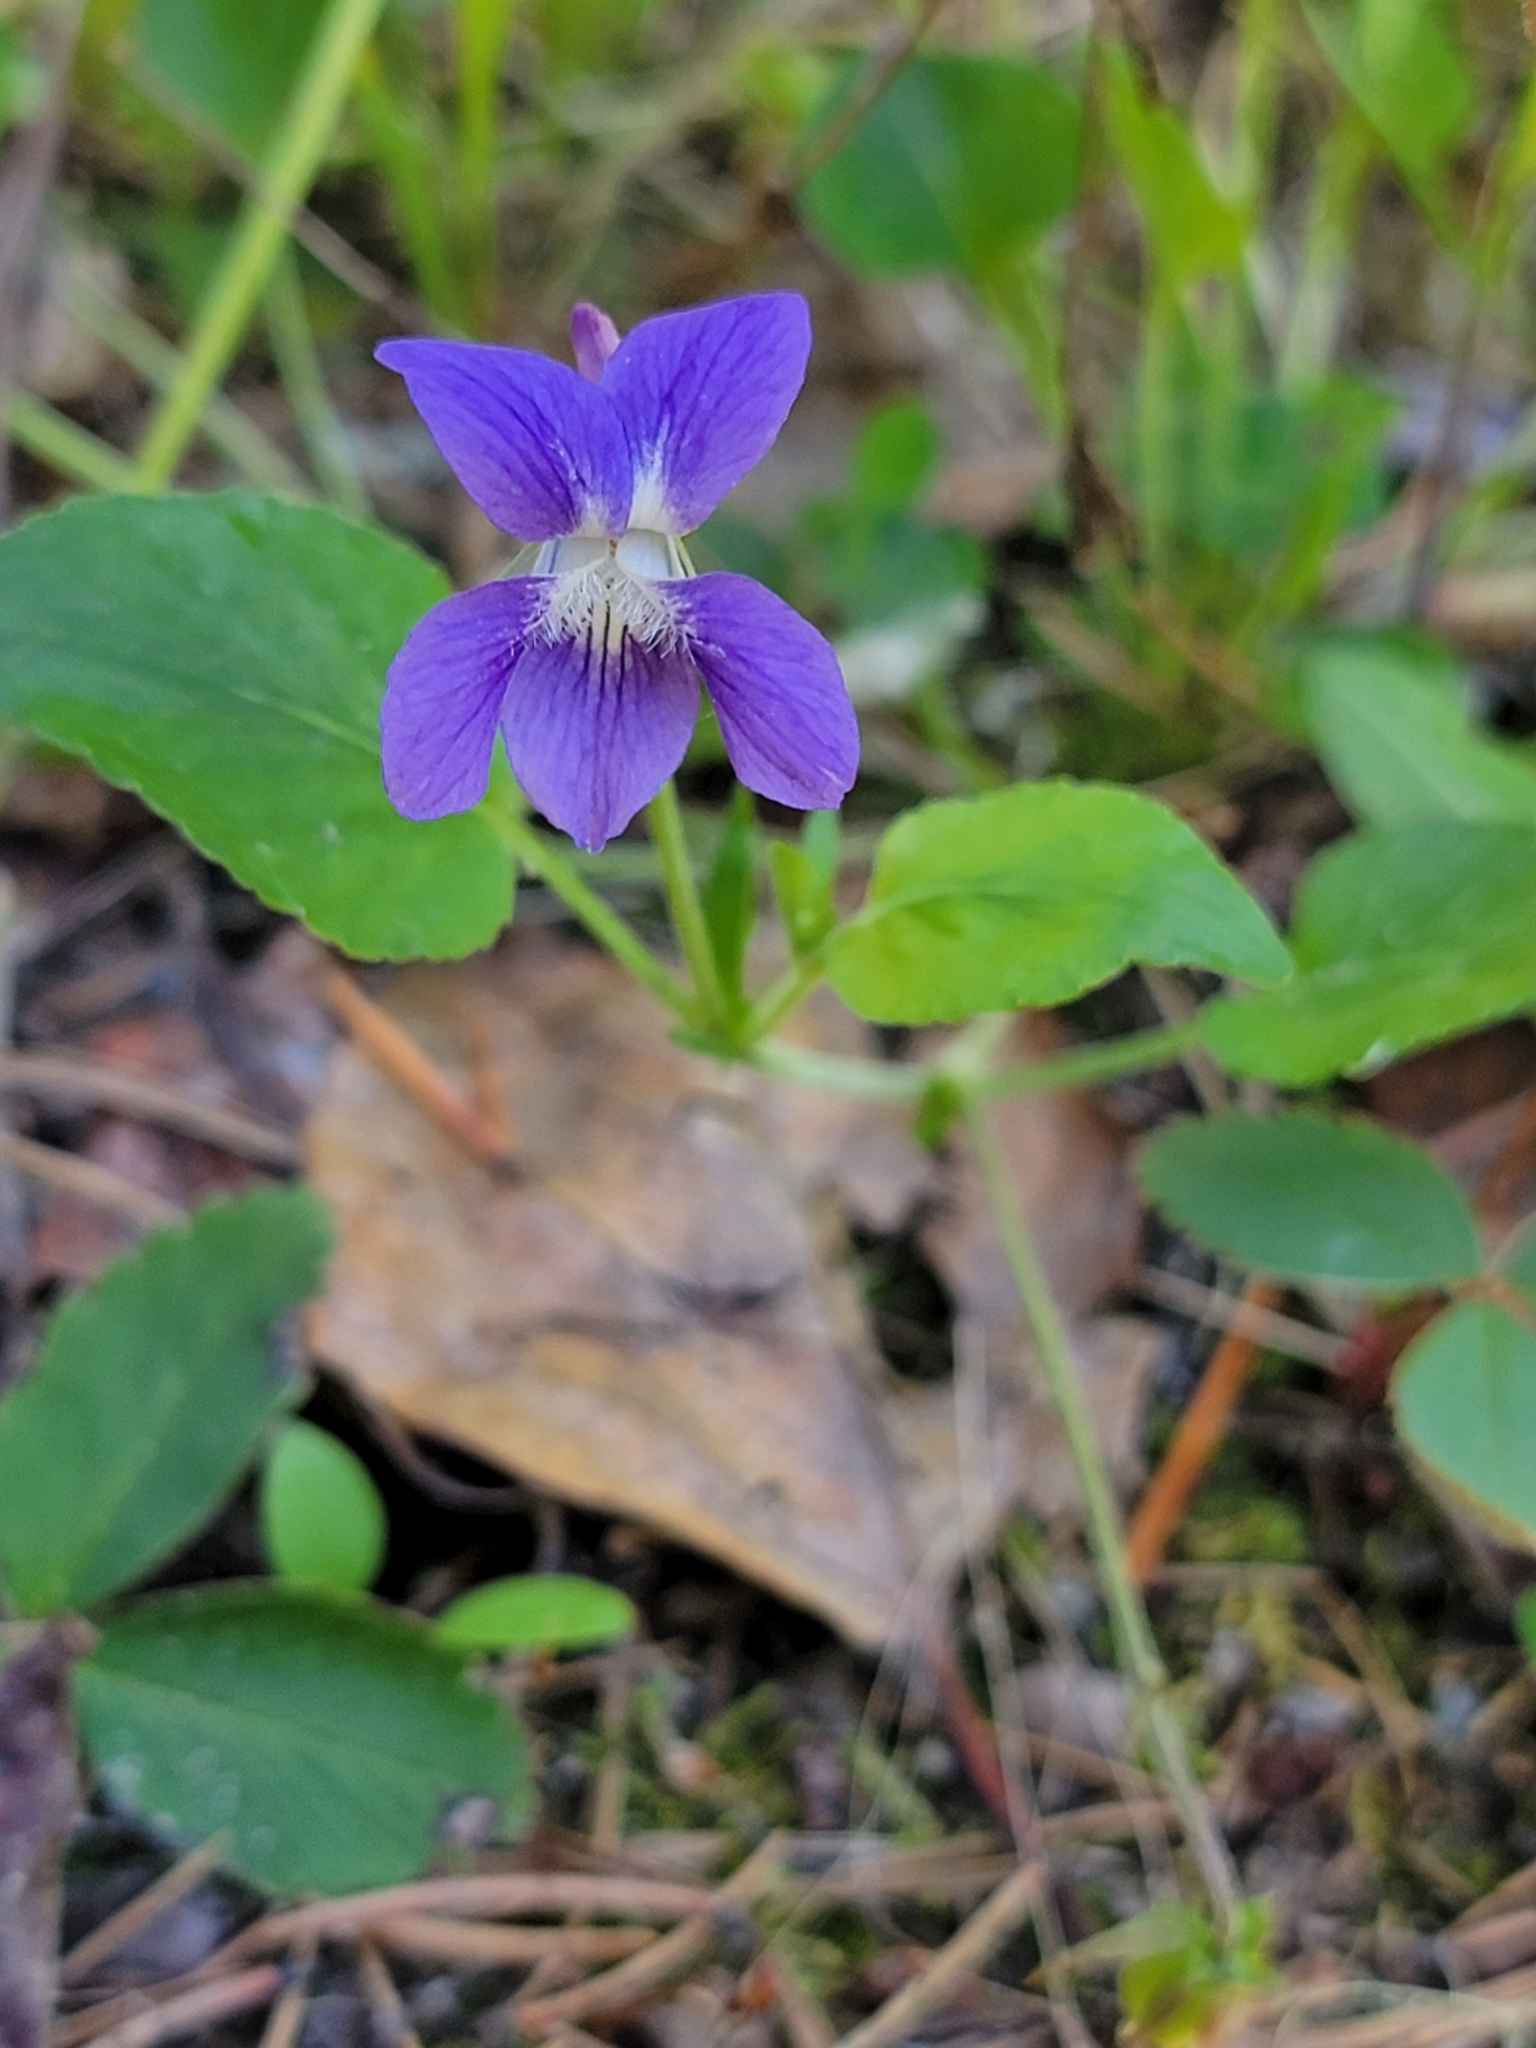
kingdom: Plantae
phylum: Tracheophyta
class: Magnoliopsida
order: Malpighiales
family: Violaceae
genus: Viola
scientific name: Viola adunca
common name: Sand violet
